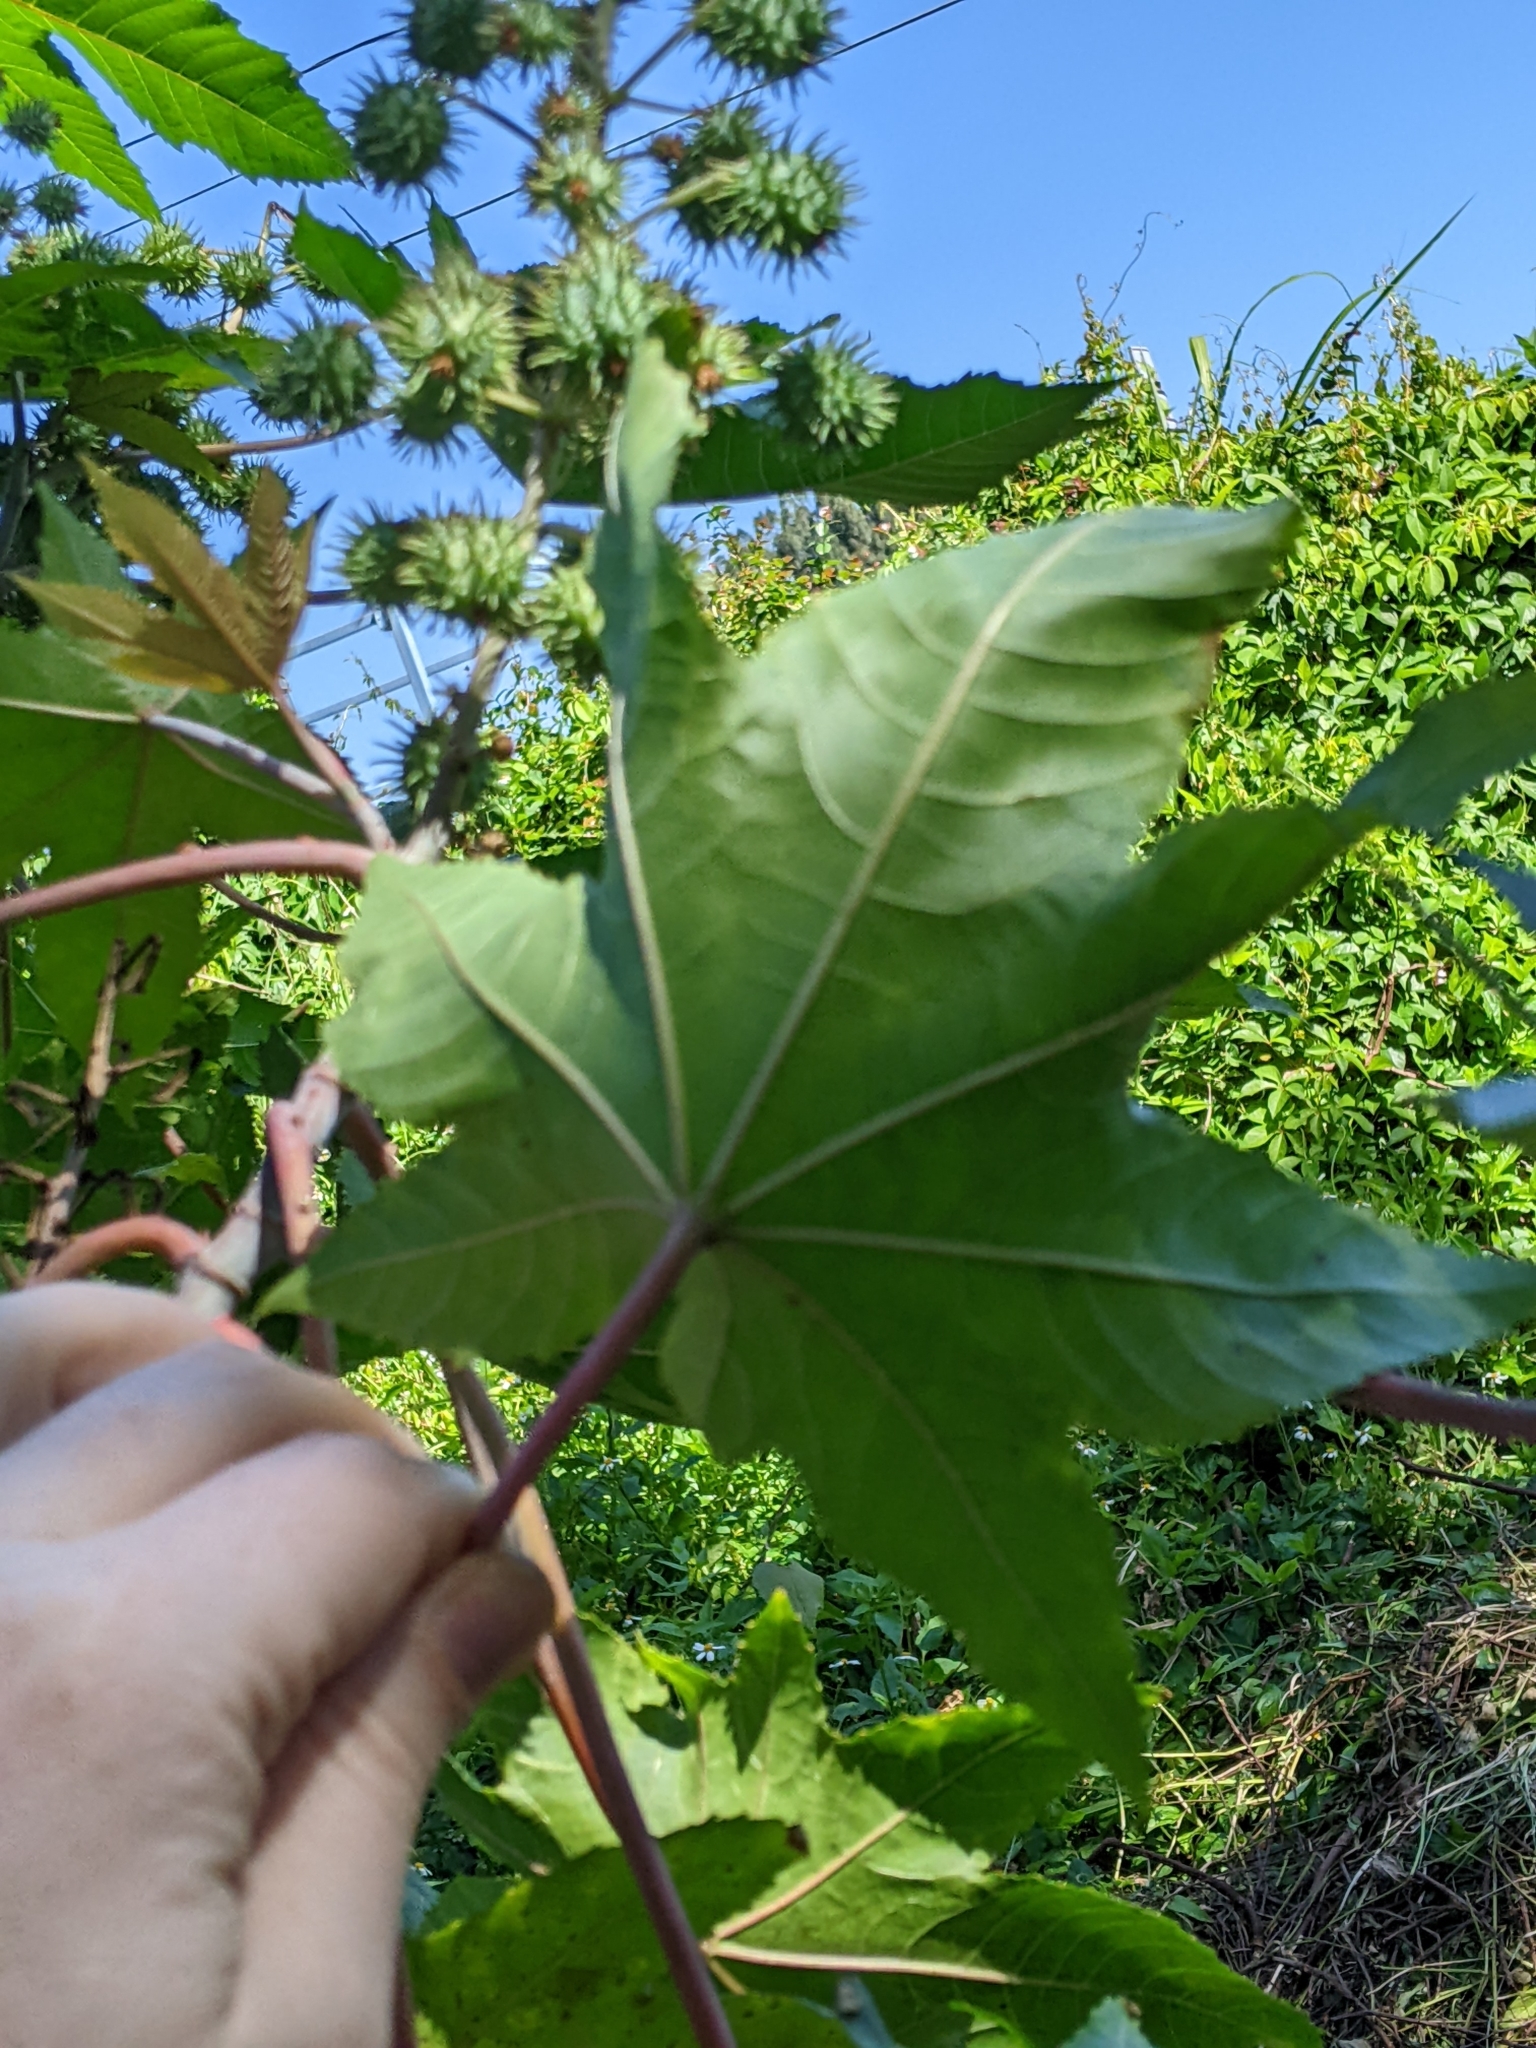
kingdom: Plantae
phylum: Tracheophyta
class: Magnoliopsida
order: Malpighiales
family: Euphorbiaceae
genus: Ricinus
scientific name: Ricinus communis
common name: Castor-oil-plant
